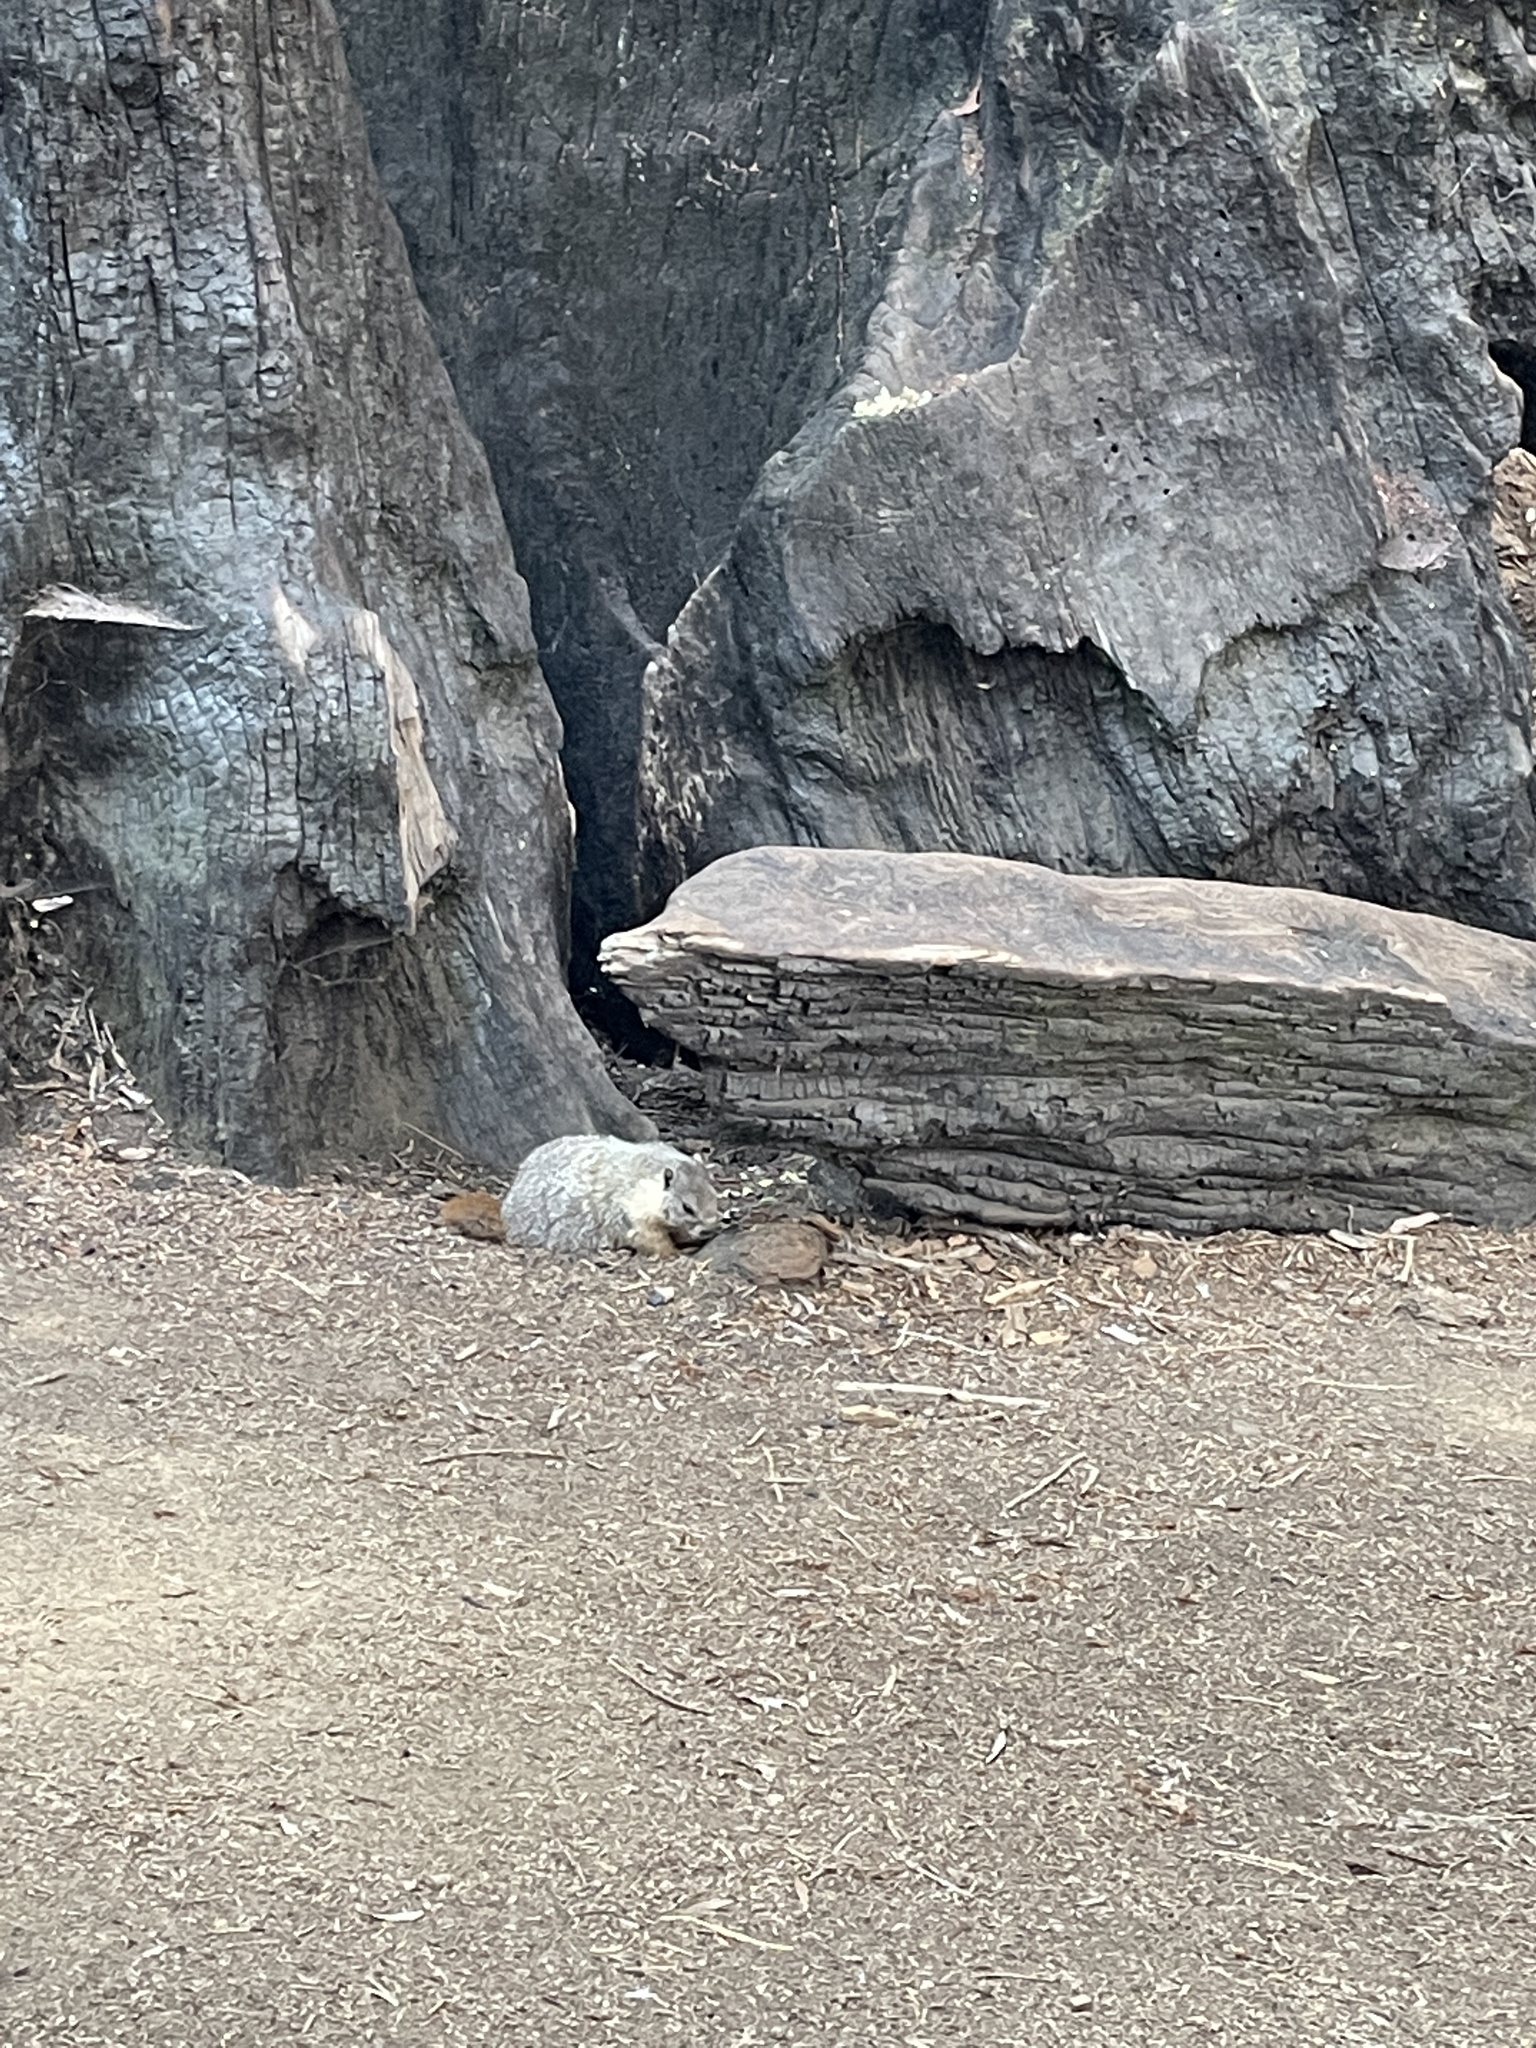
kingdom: Animalia
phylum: Chordata
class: Mammalia
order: Rodentia
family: Sciuridae
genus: Marmota
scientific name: Marmota flaviventris
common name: Yellow-bellied marmot
